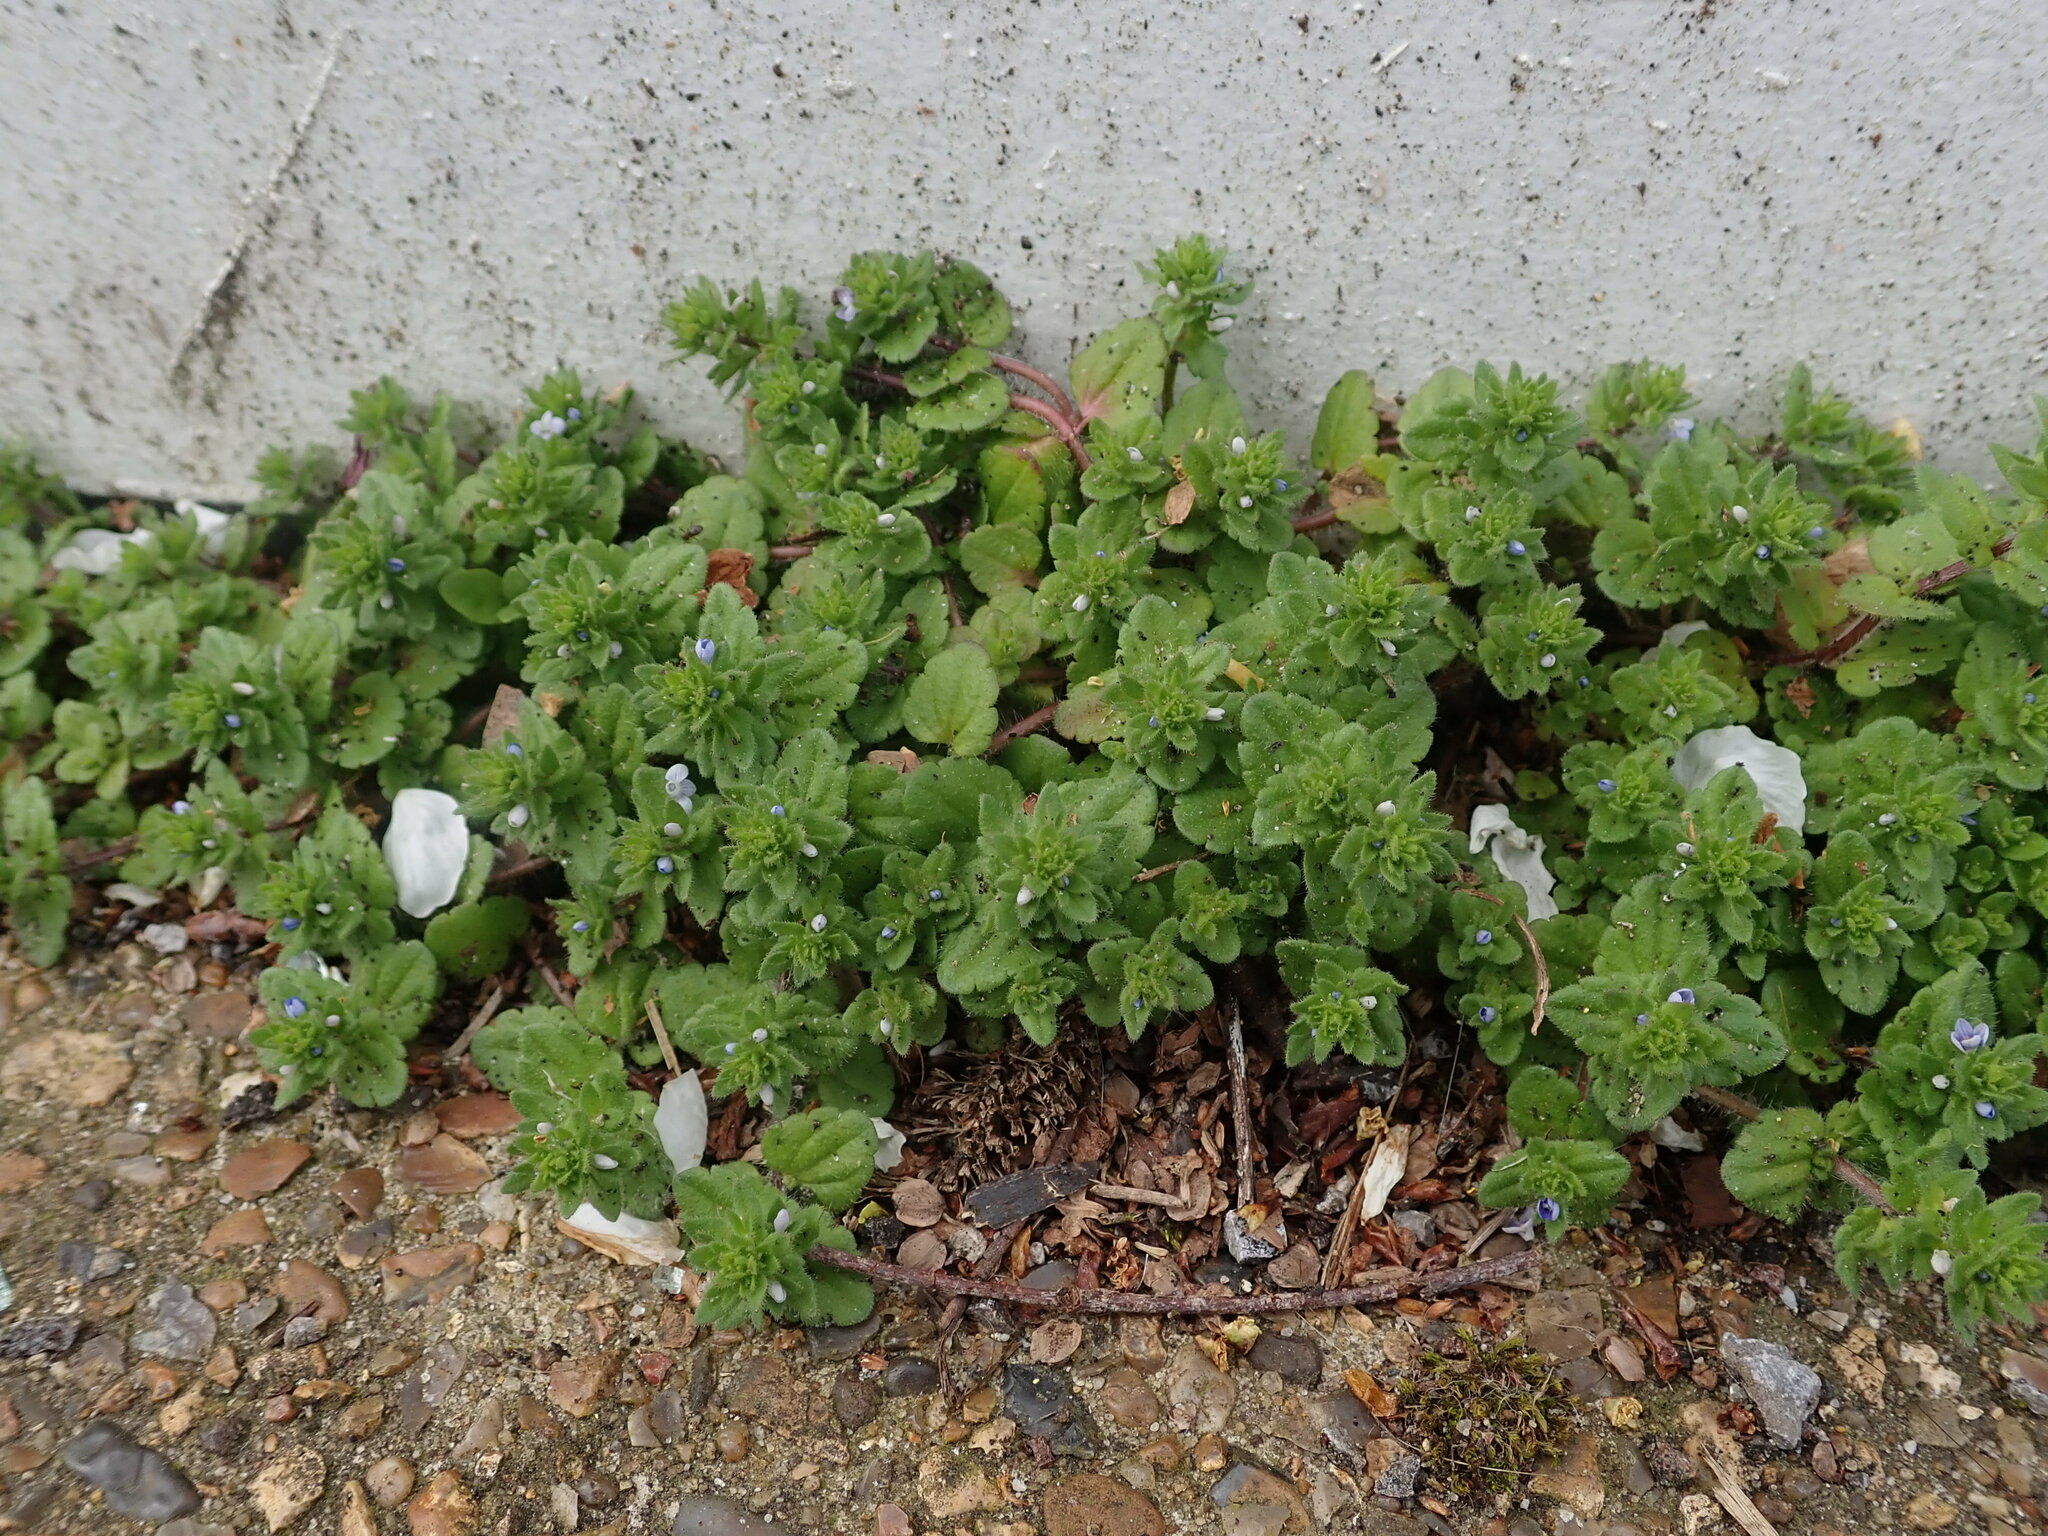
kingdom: Plantae
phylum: Tracheophyta
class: Magnoliopsida
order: Lamiales
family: Plantaginaceae
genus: Veronica
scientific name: Veronica arvensis
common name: Corn speedwell
